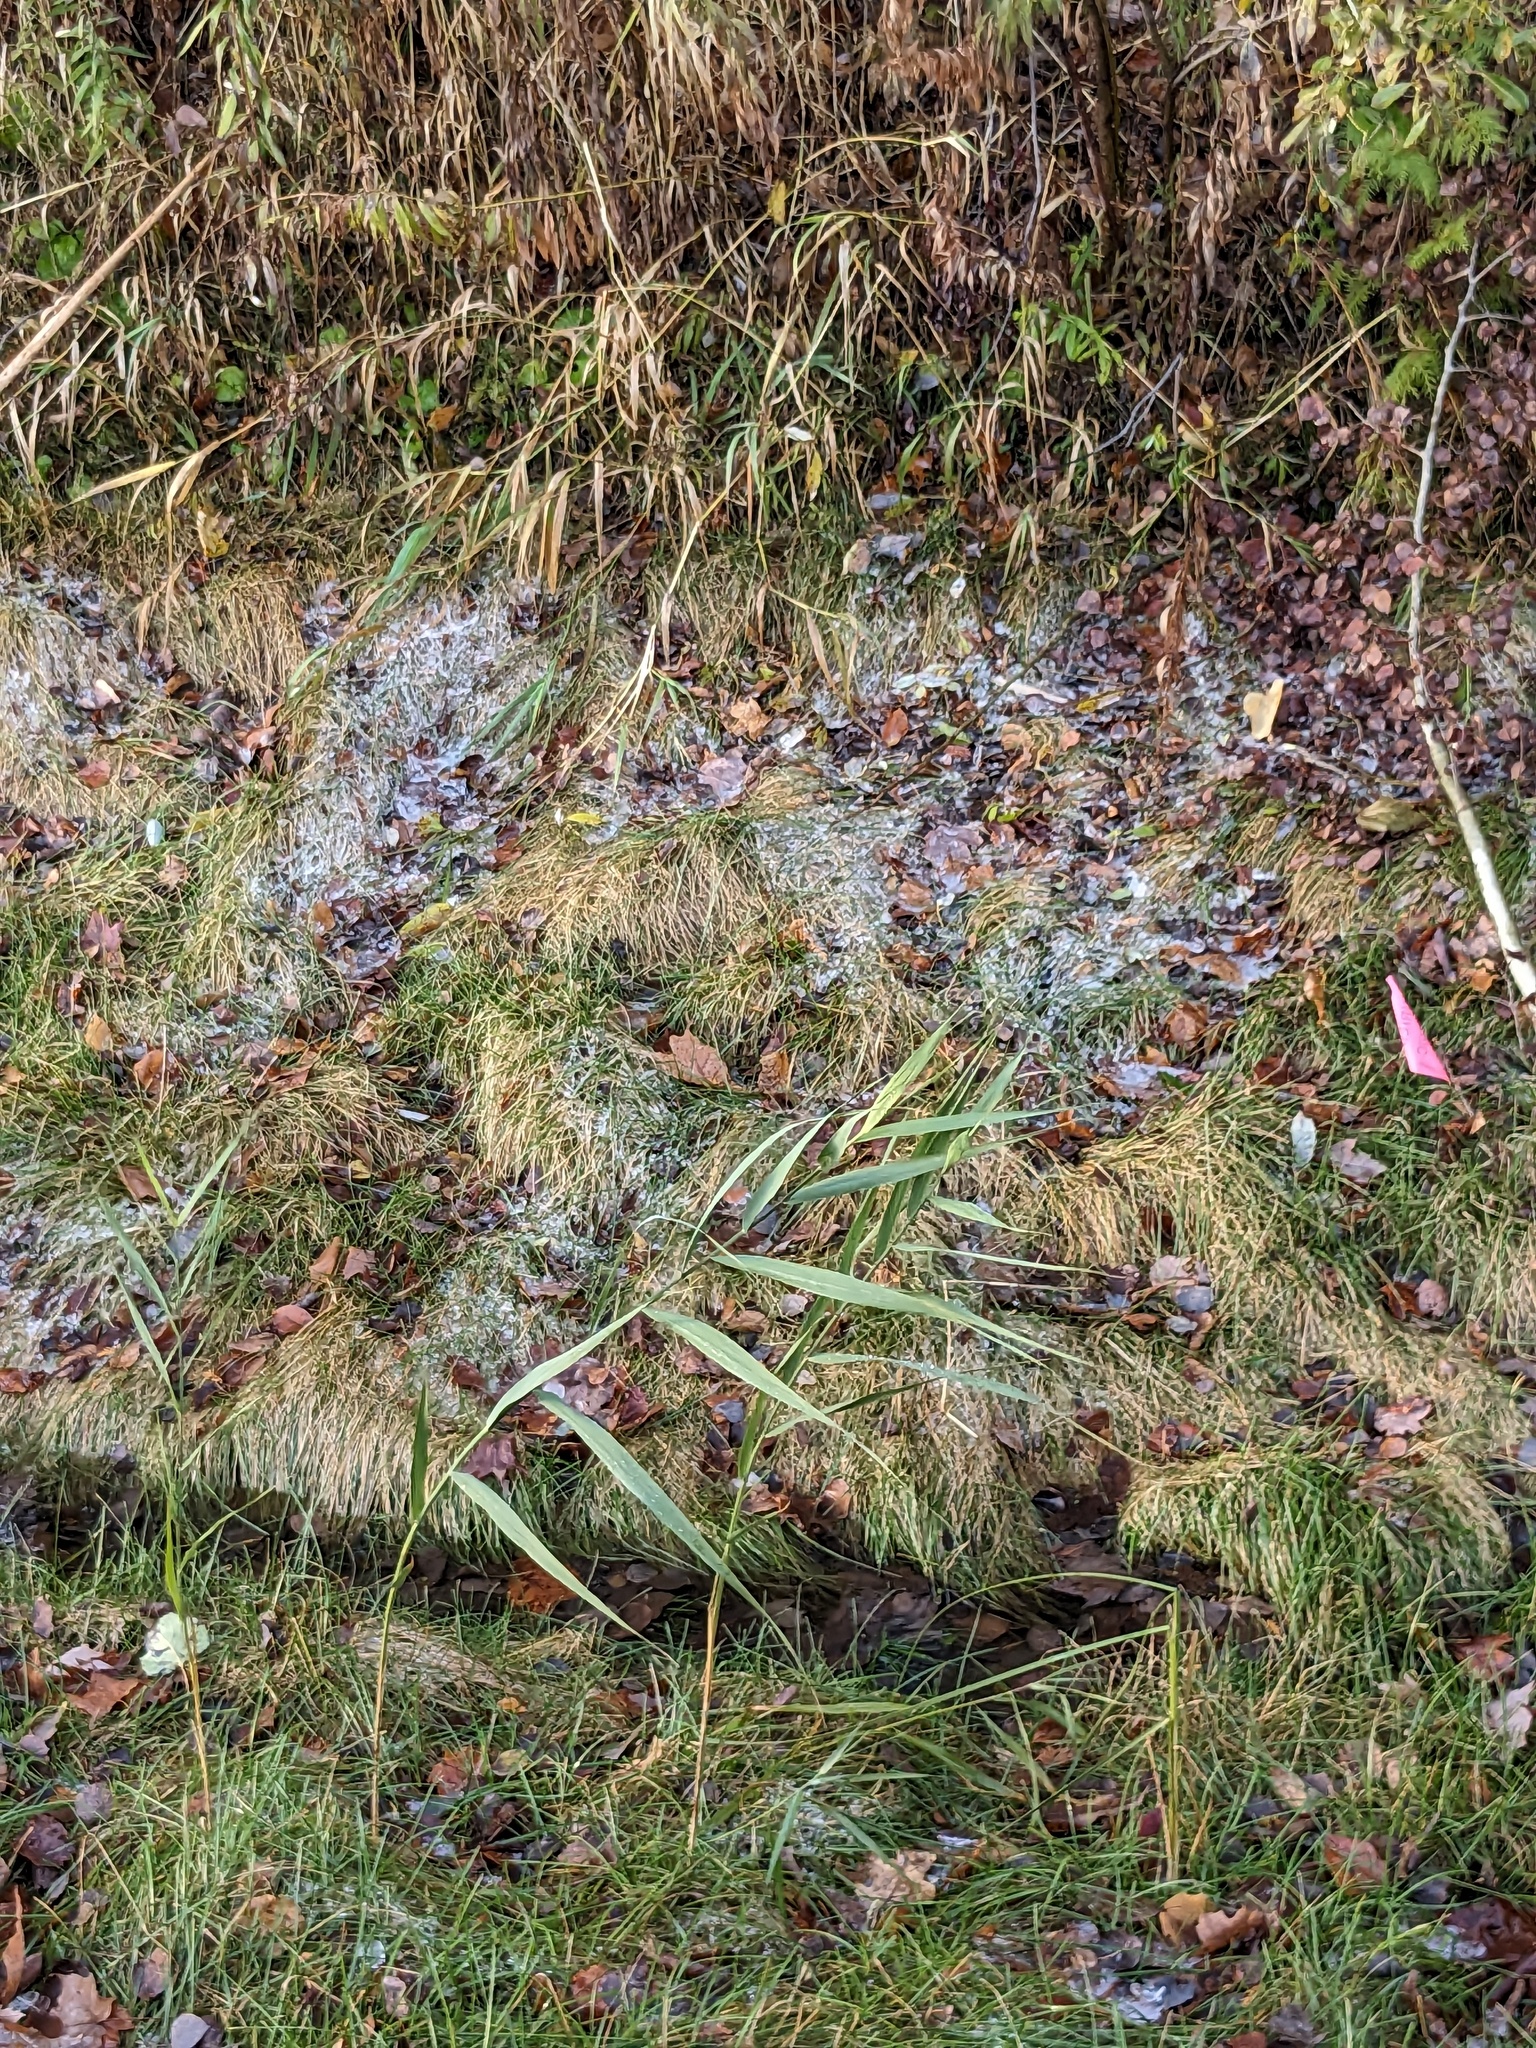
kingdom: Plantae
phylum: Tracheophyta
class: Liliopsida
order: Poales
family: Poaceae
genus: Phragmites
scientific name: Phragmites australis
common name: Common reed
